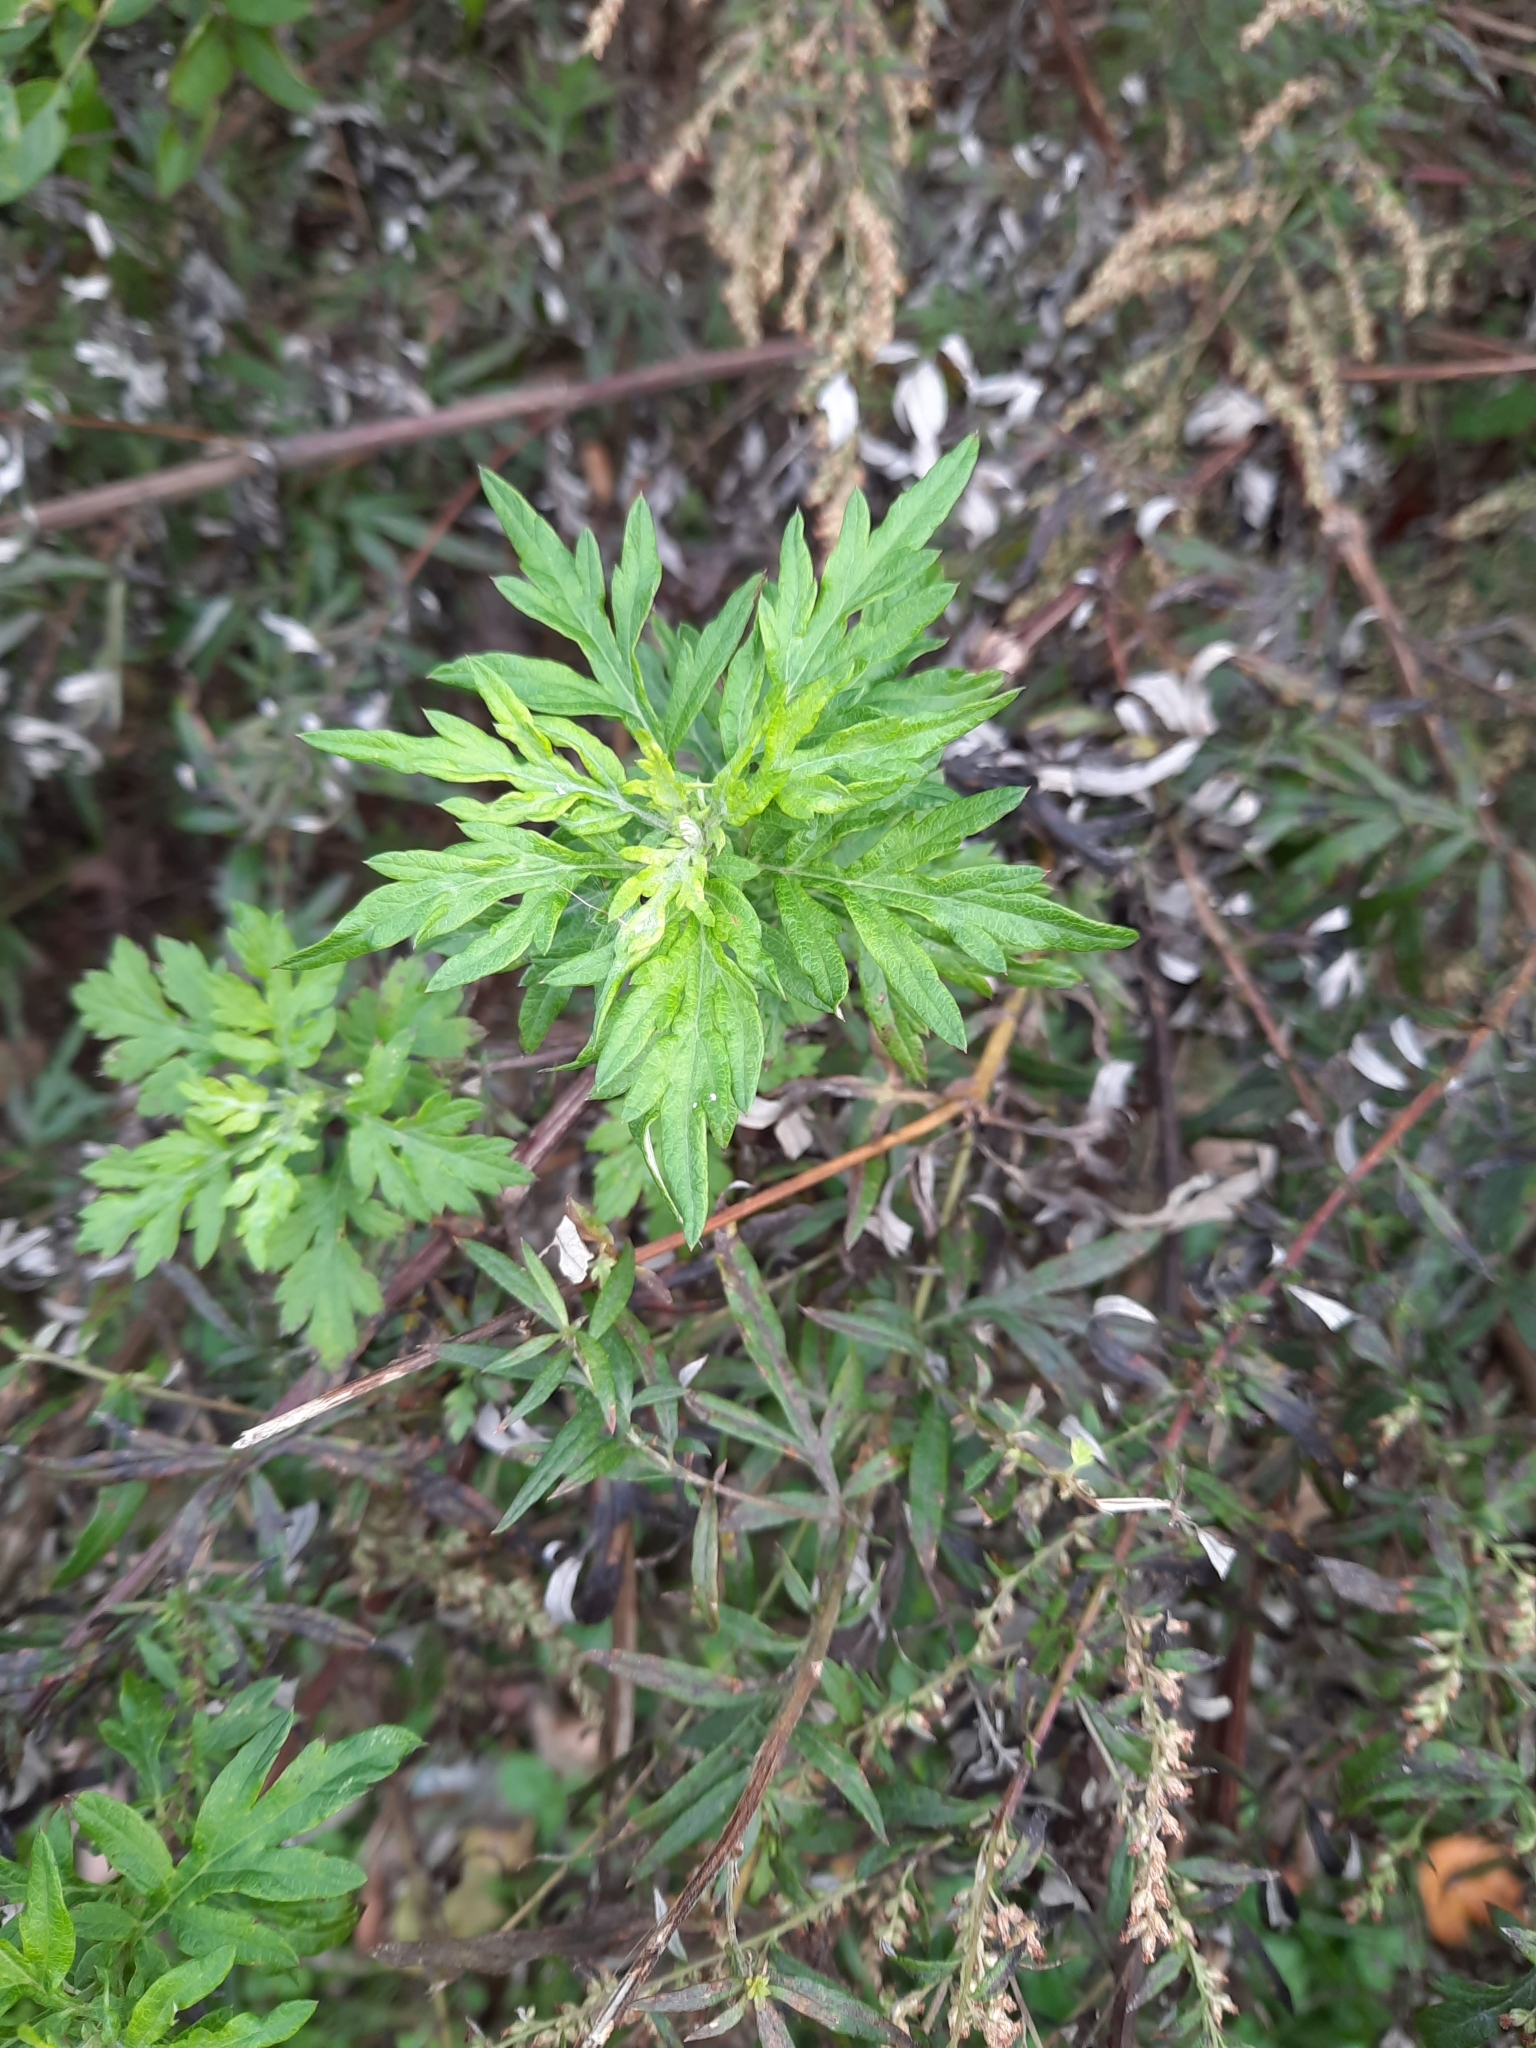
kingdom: Plantae
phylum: Tracheophyta
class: Magnoliopsida
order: Asterales
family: Asteraceae
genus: Artemisia
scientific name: Artemisia vulgaris
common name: Mugwort
